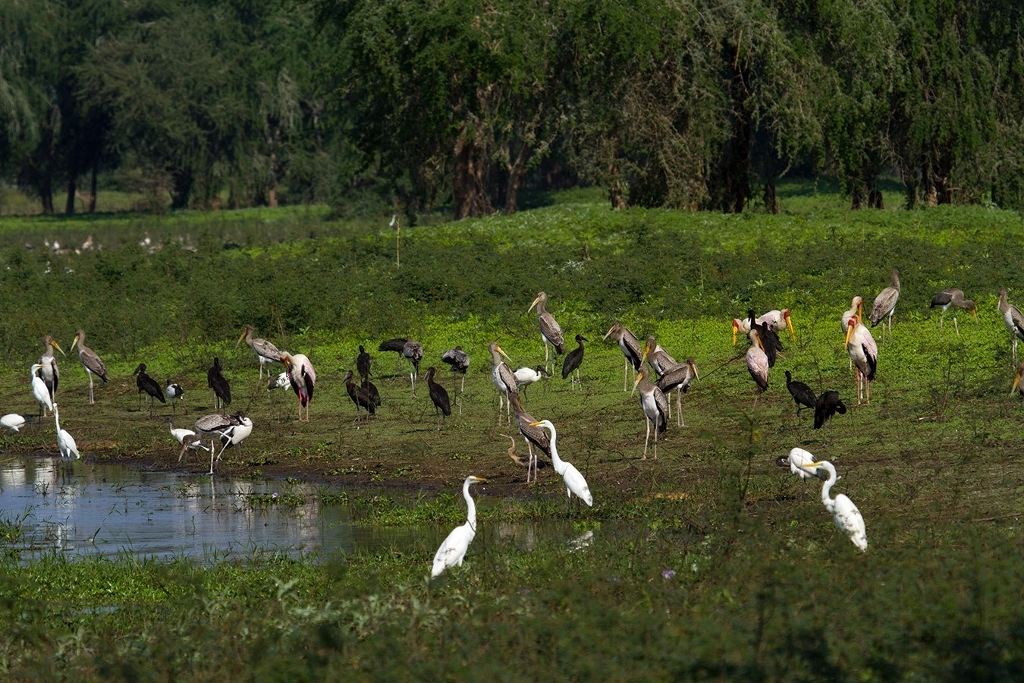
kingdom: Animalia
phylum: Chordata
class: Aves
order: Ciconiiformes
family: Ciconiidae
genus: Anastomus
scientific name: Anastomus lamelligerus
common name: African openbill
